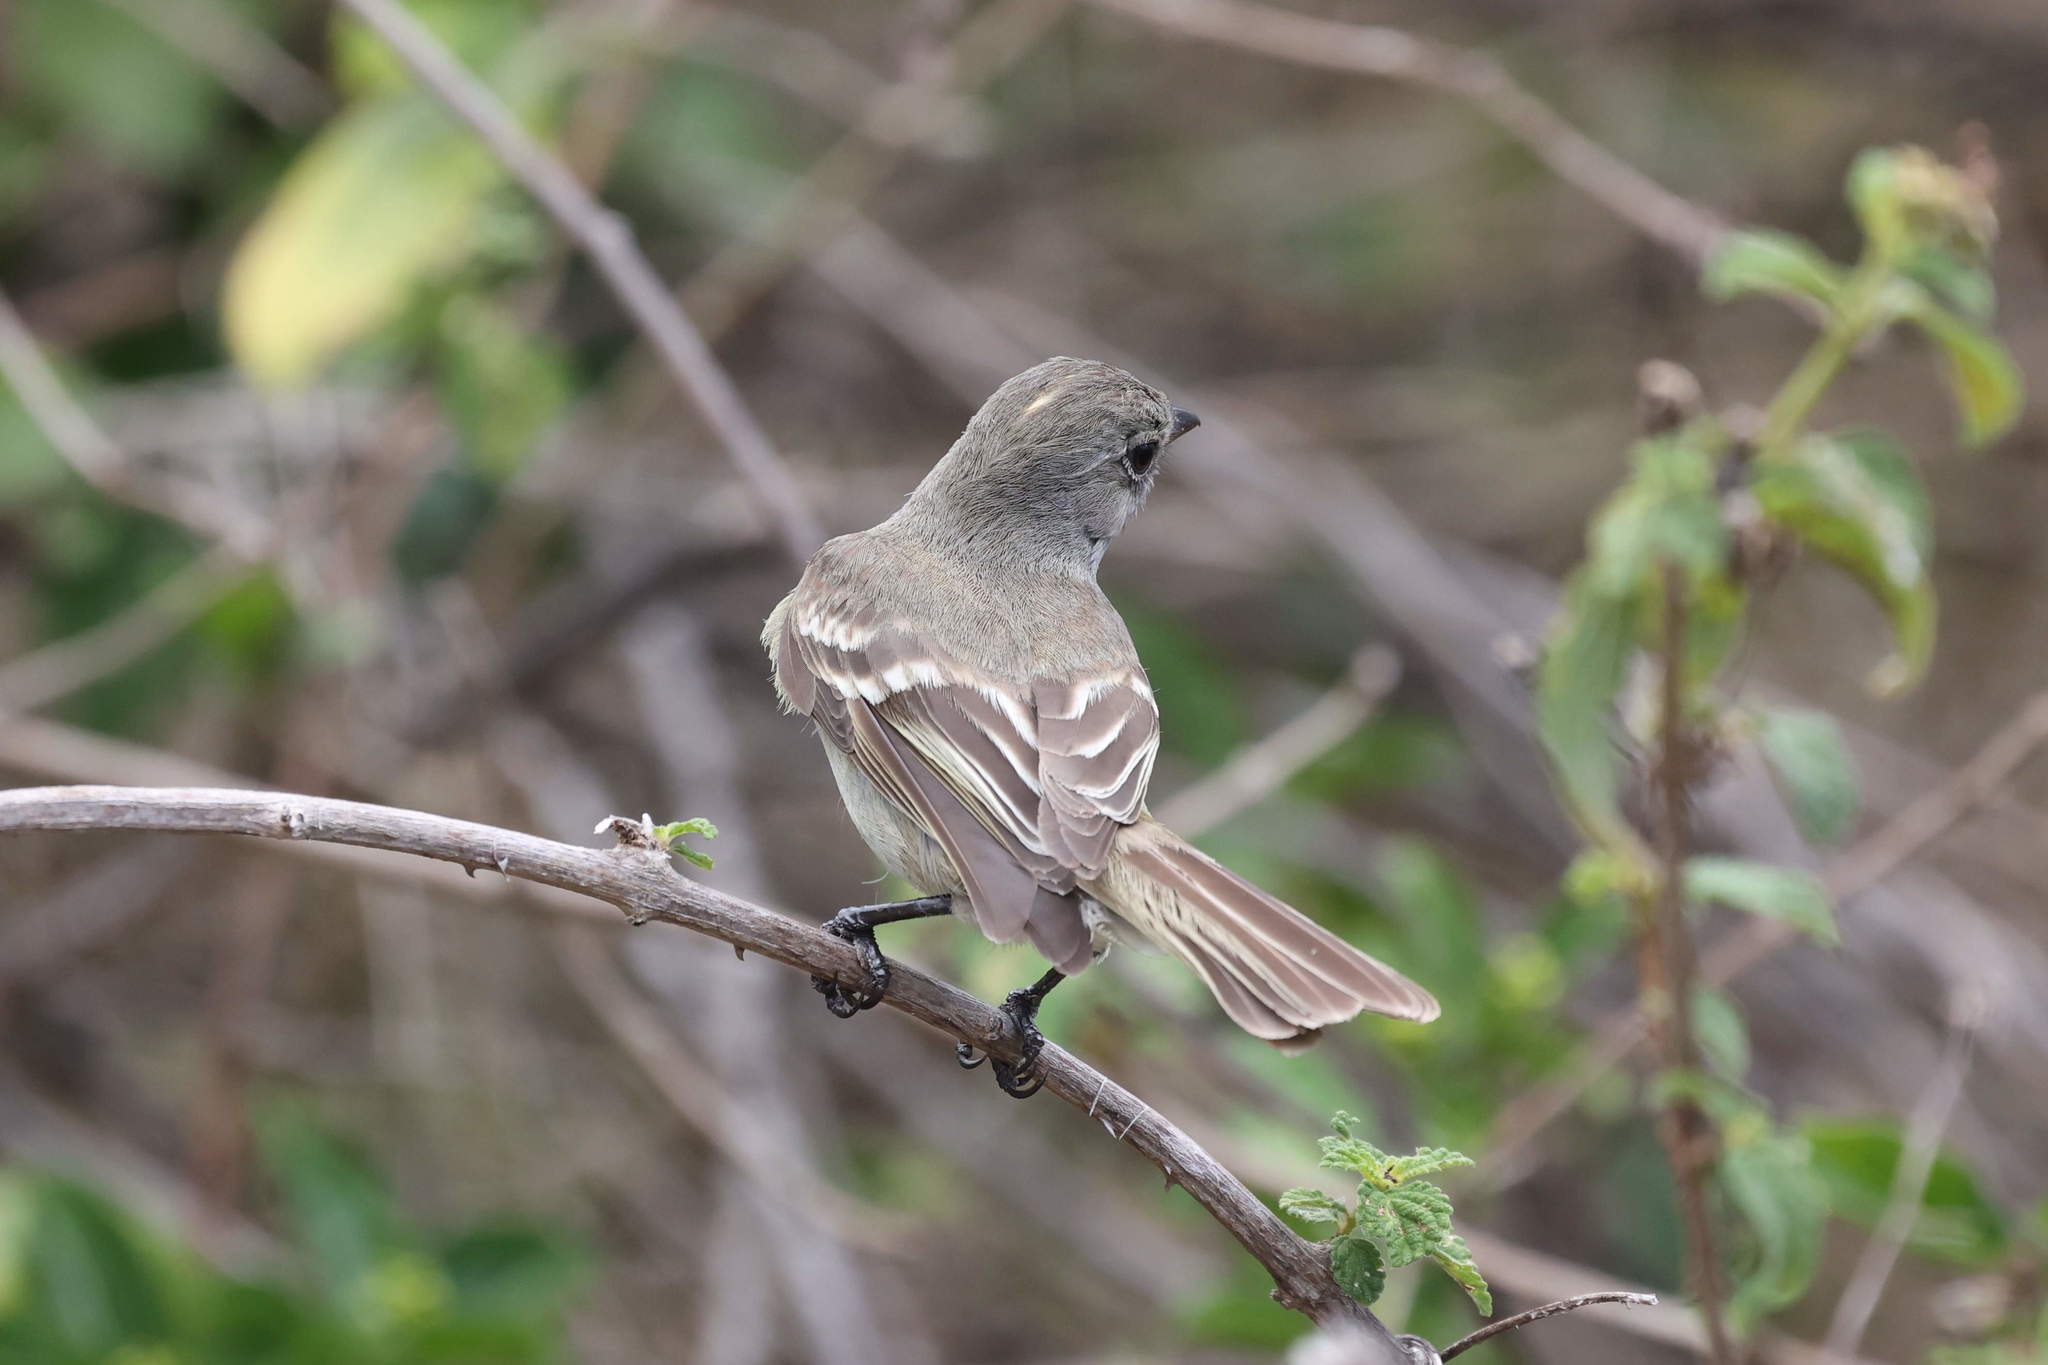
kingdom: Animalia
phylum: Chordata
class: Aves
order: Passeriformes
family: Tyrannidae
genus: Elaenia
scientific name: Elaenia martinica
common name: Caribbean elaenia
